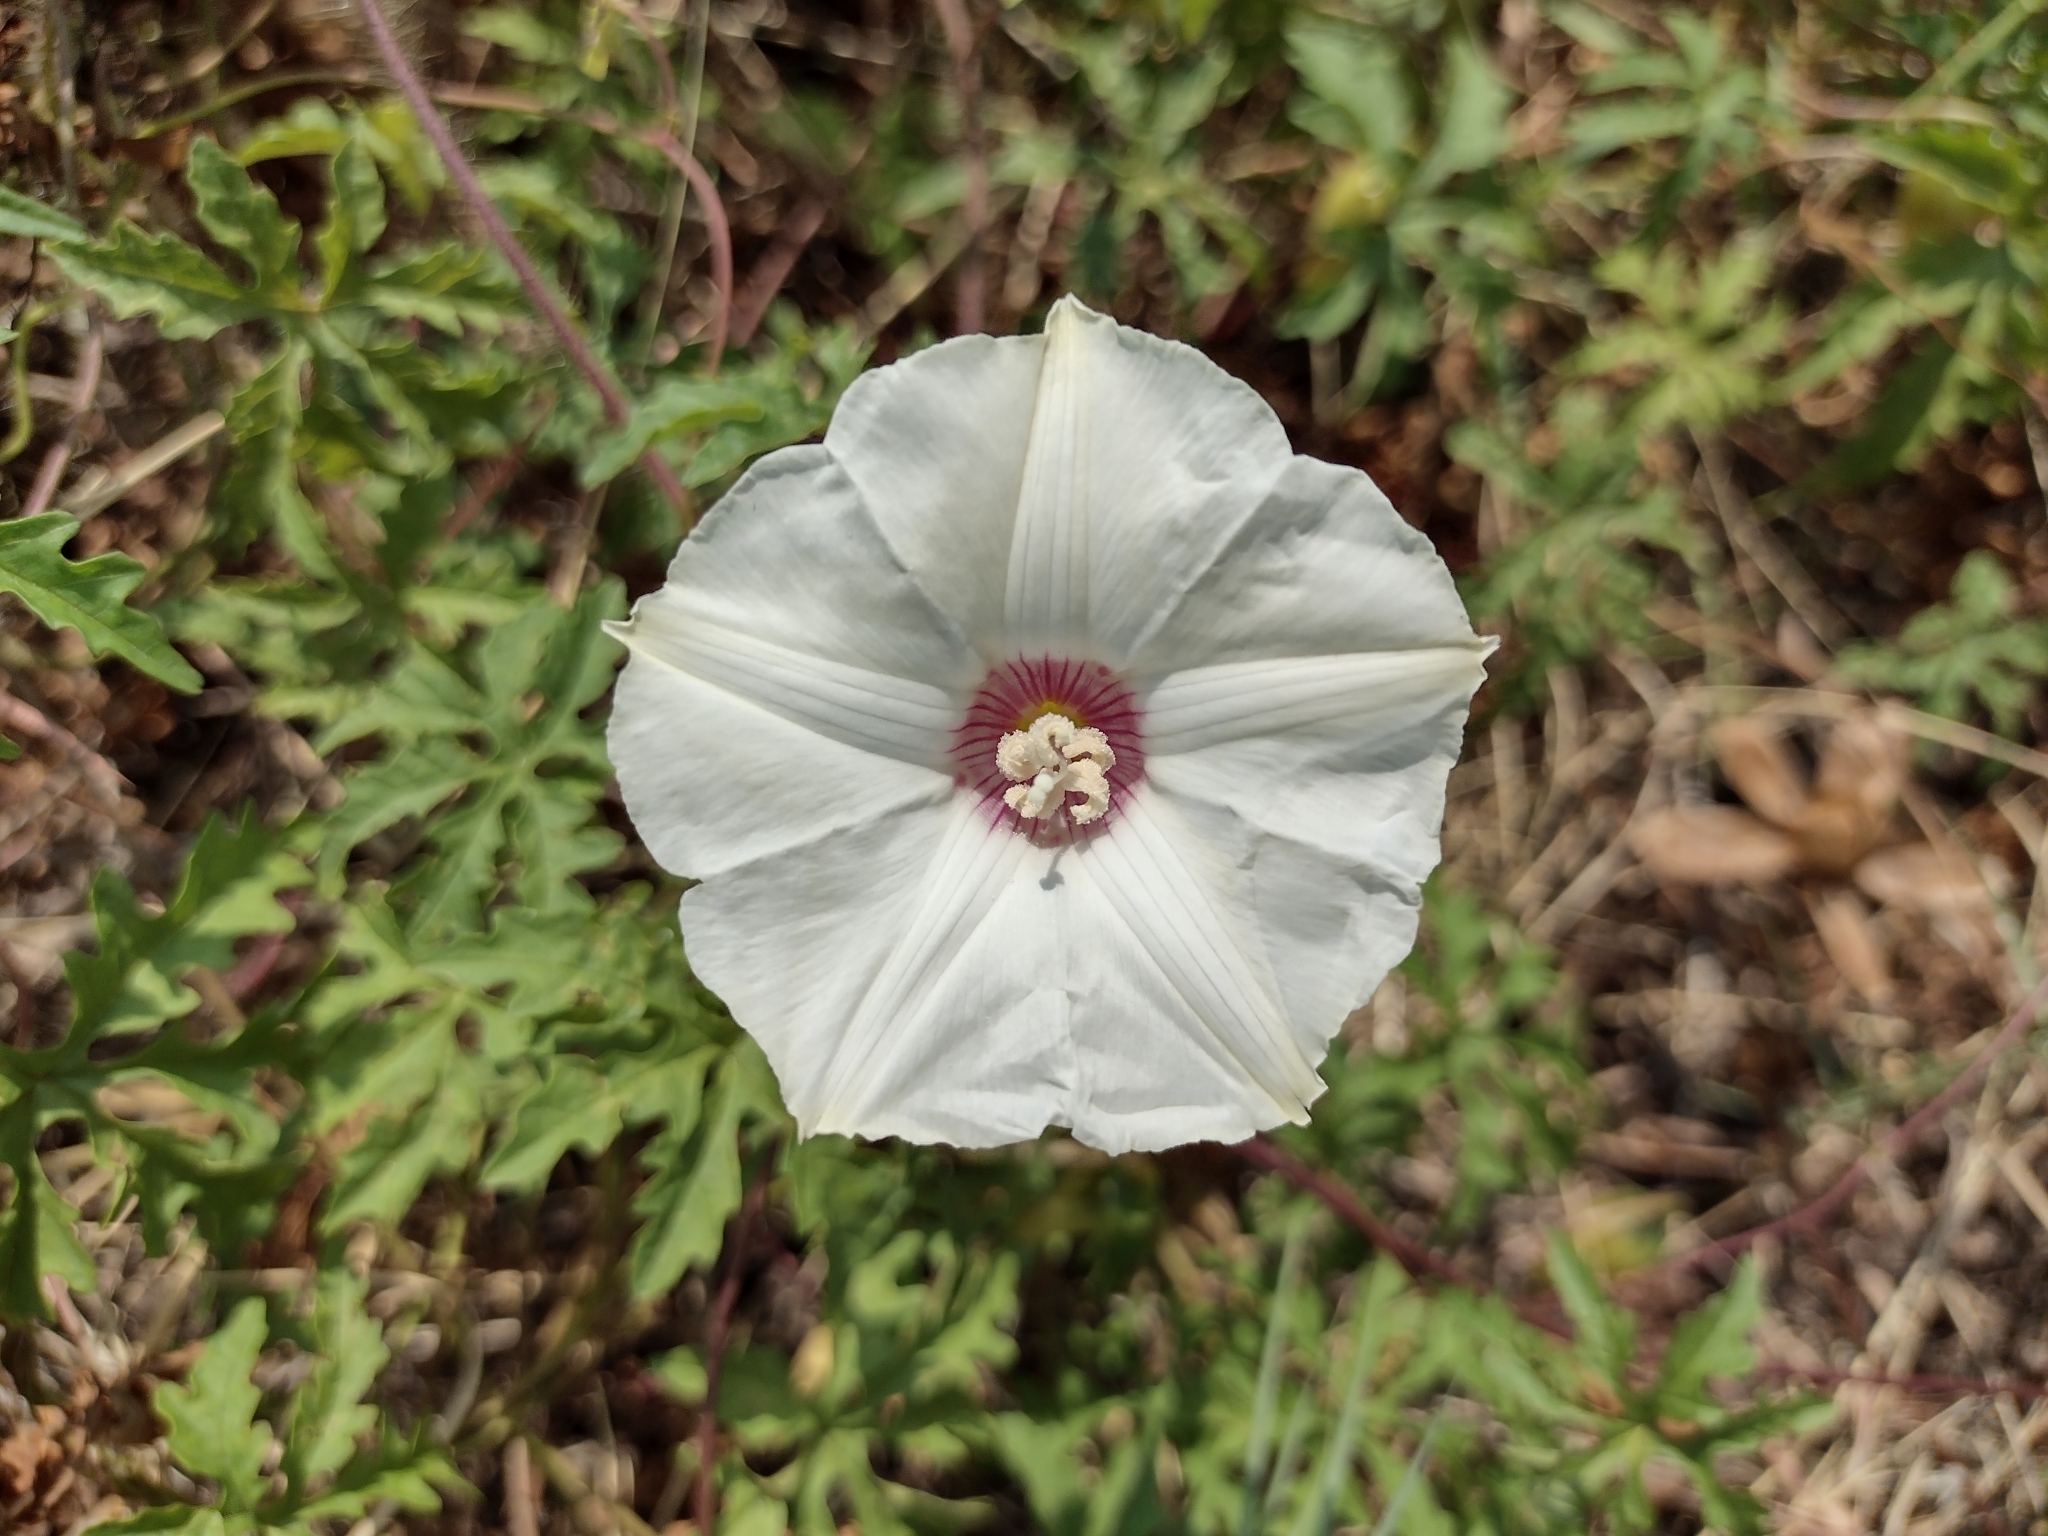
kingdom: Plantae
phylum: Tracheophyta
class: Magnoliopsida
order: Solanales
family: Convolvulaceae
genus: Distimake
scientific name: Distimake dissectus
